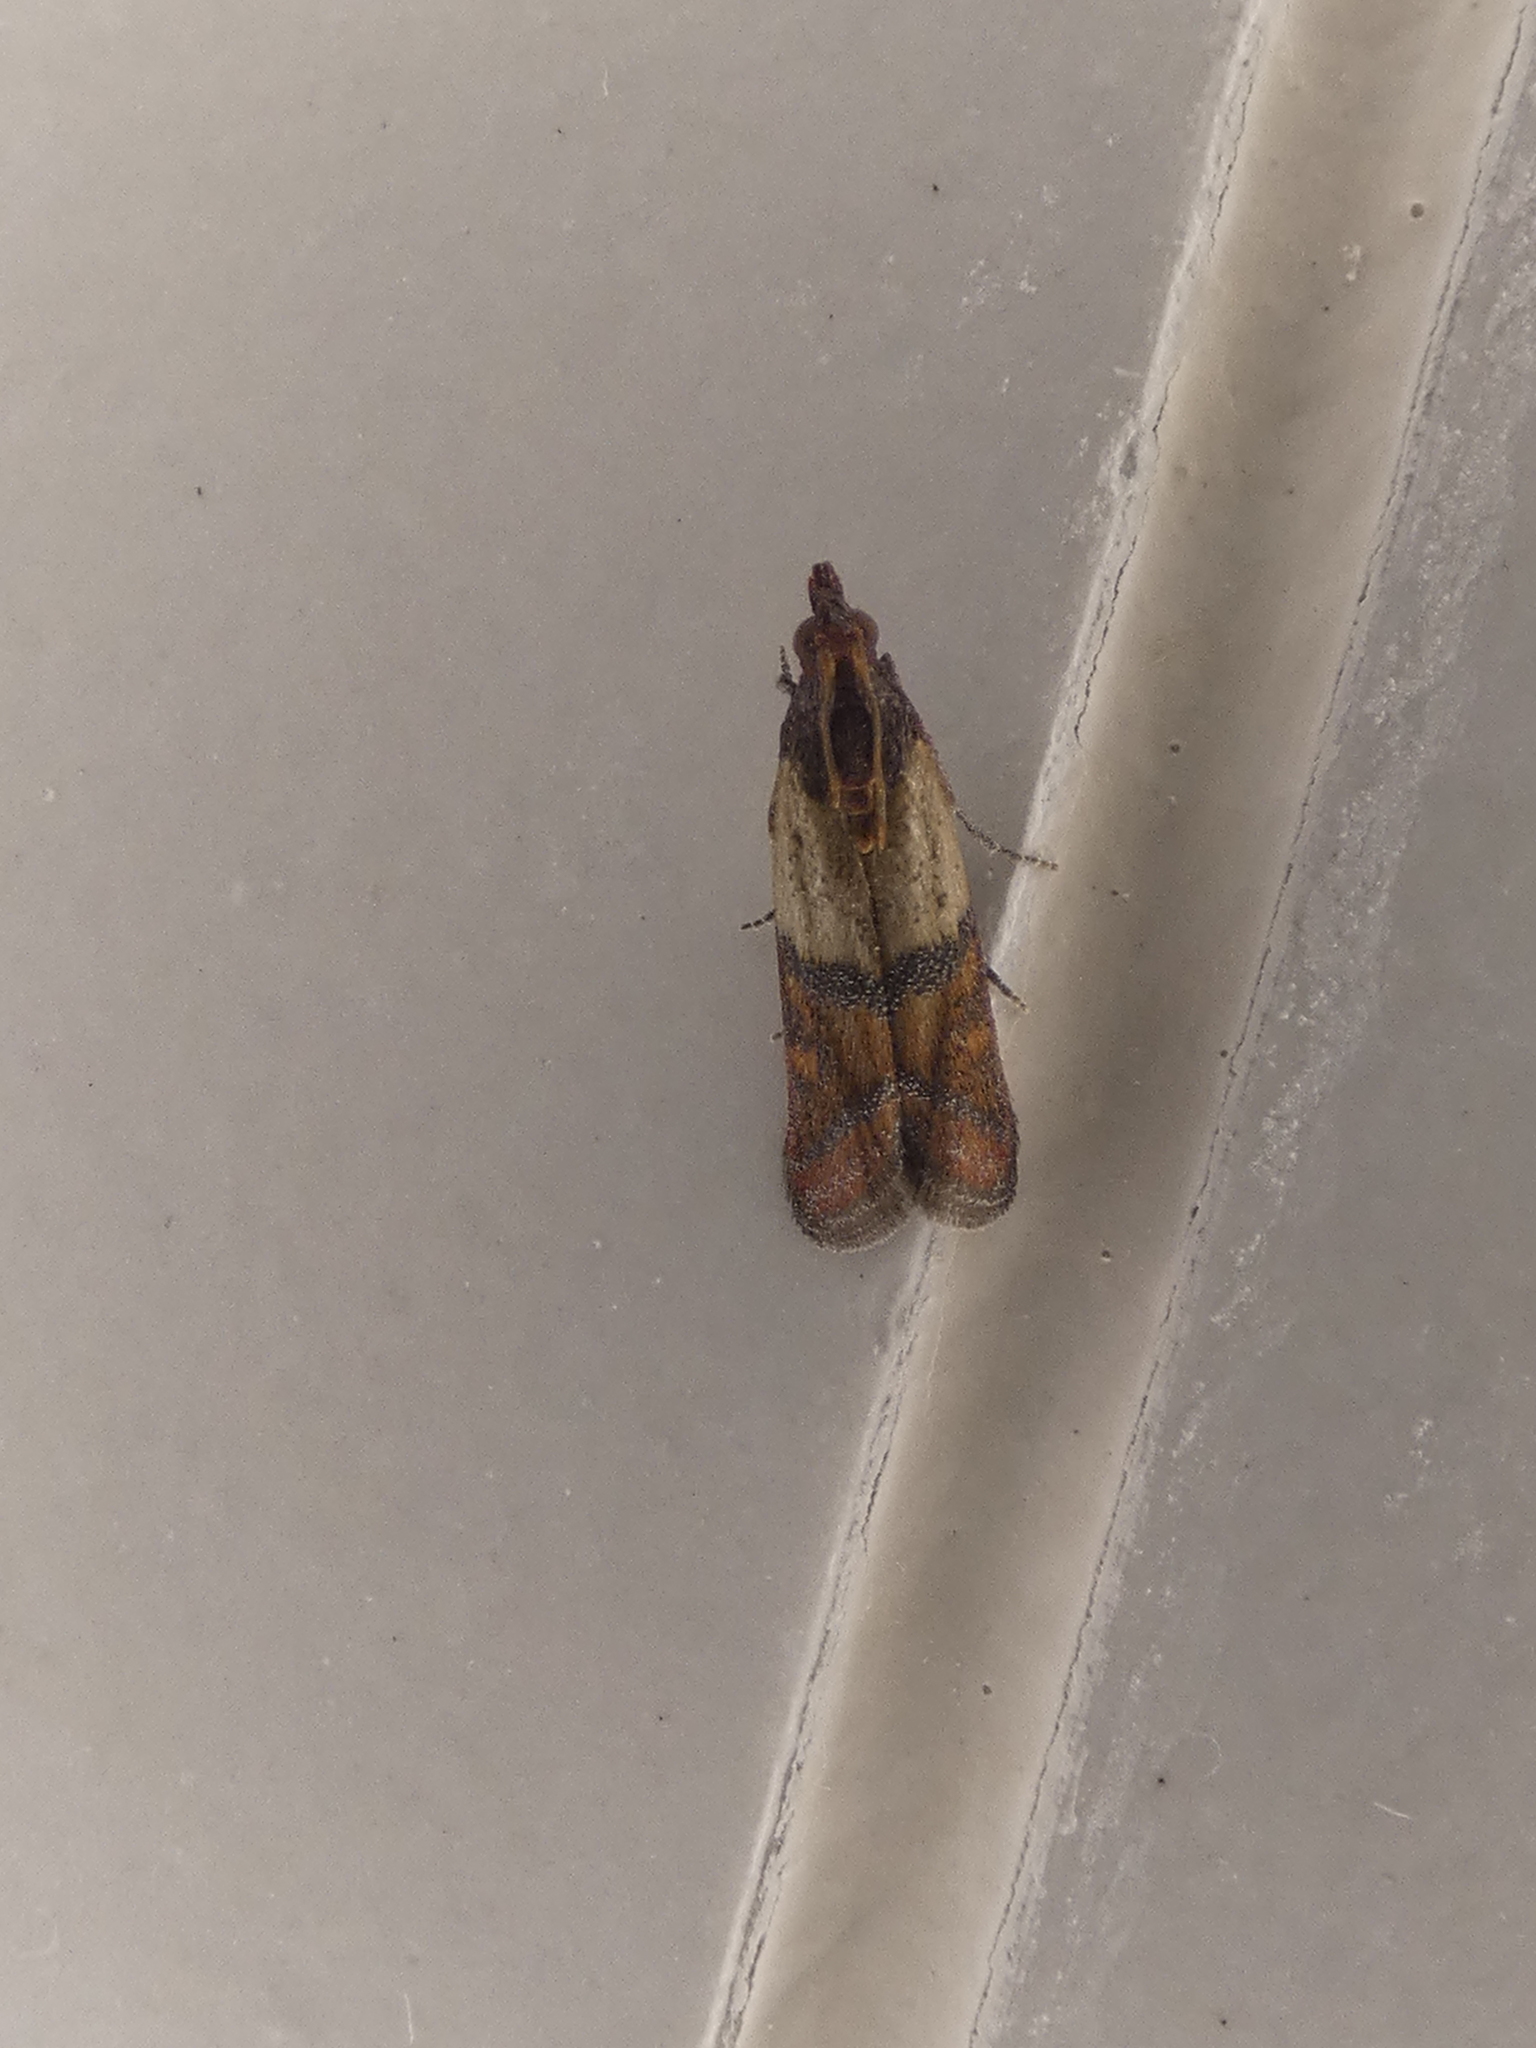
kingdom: Animalia
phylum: Arthropoda
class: Insecta
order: Lepidoptera
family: Pyralidae
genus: Plodia
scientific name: Plodia interpunctella
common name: Indian meal moth
